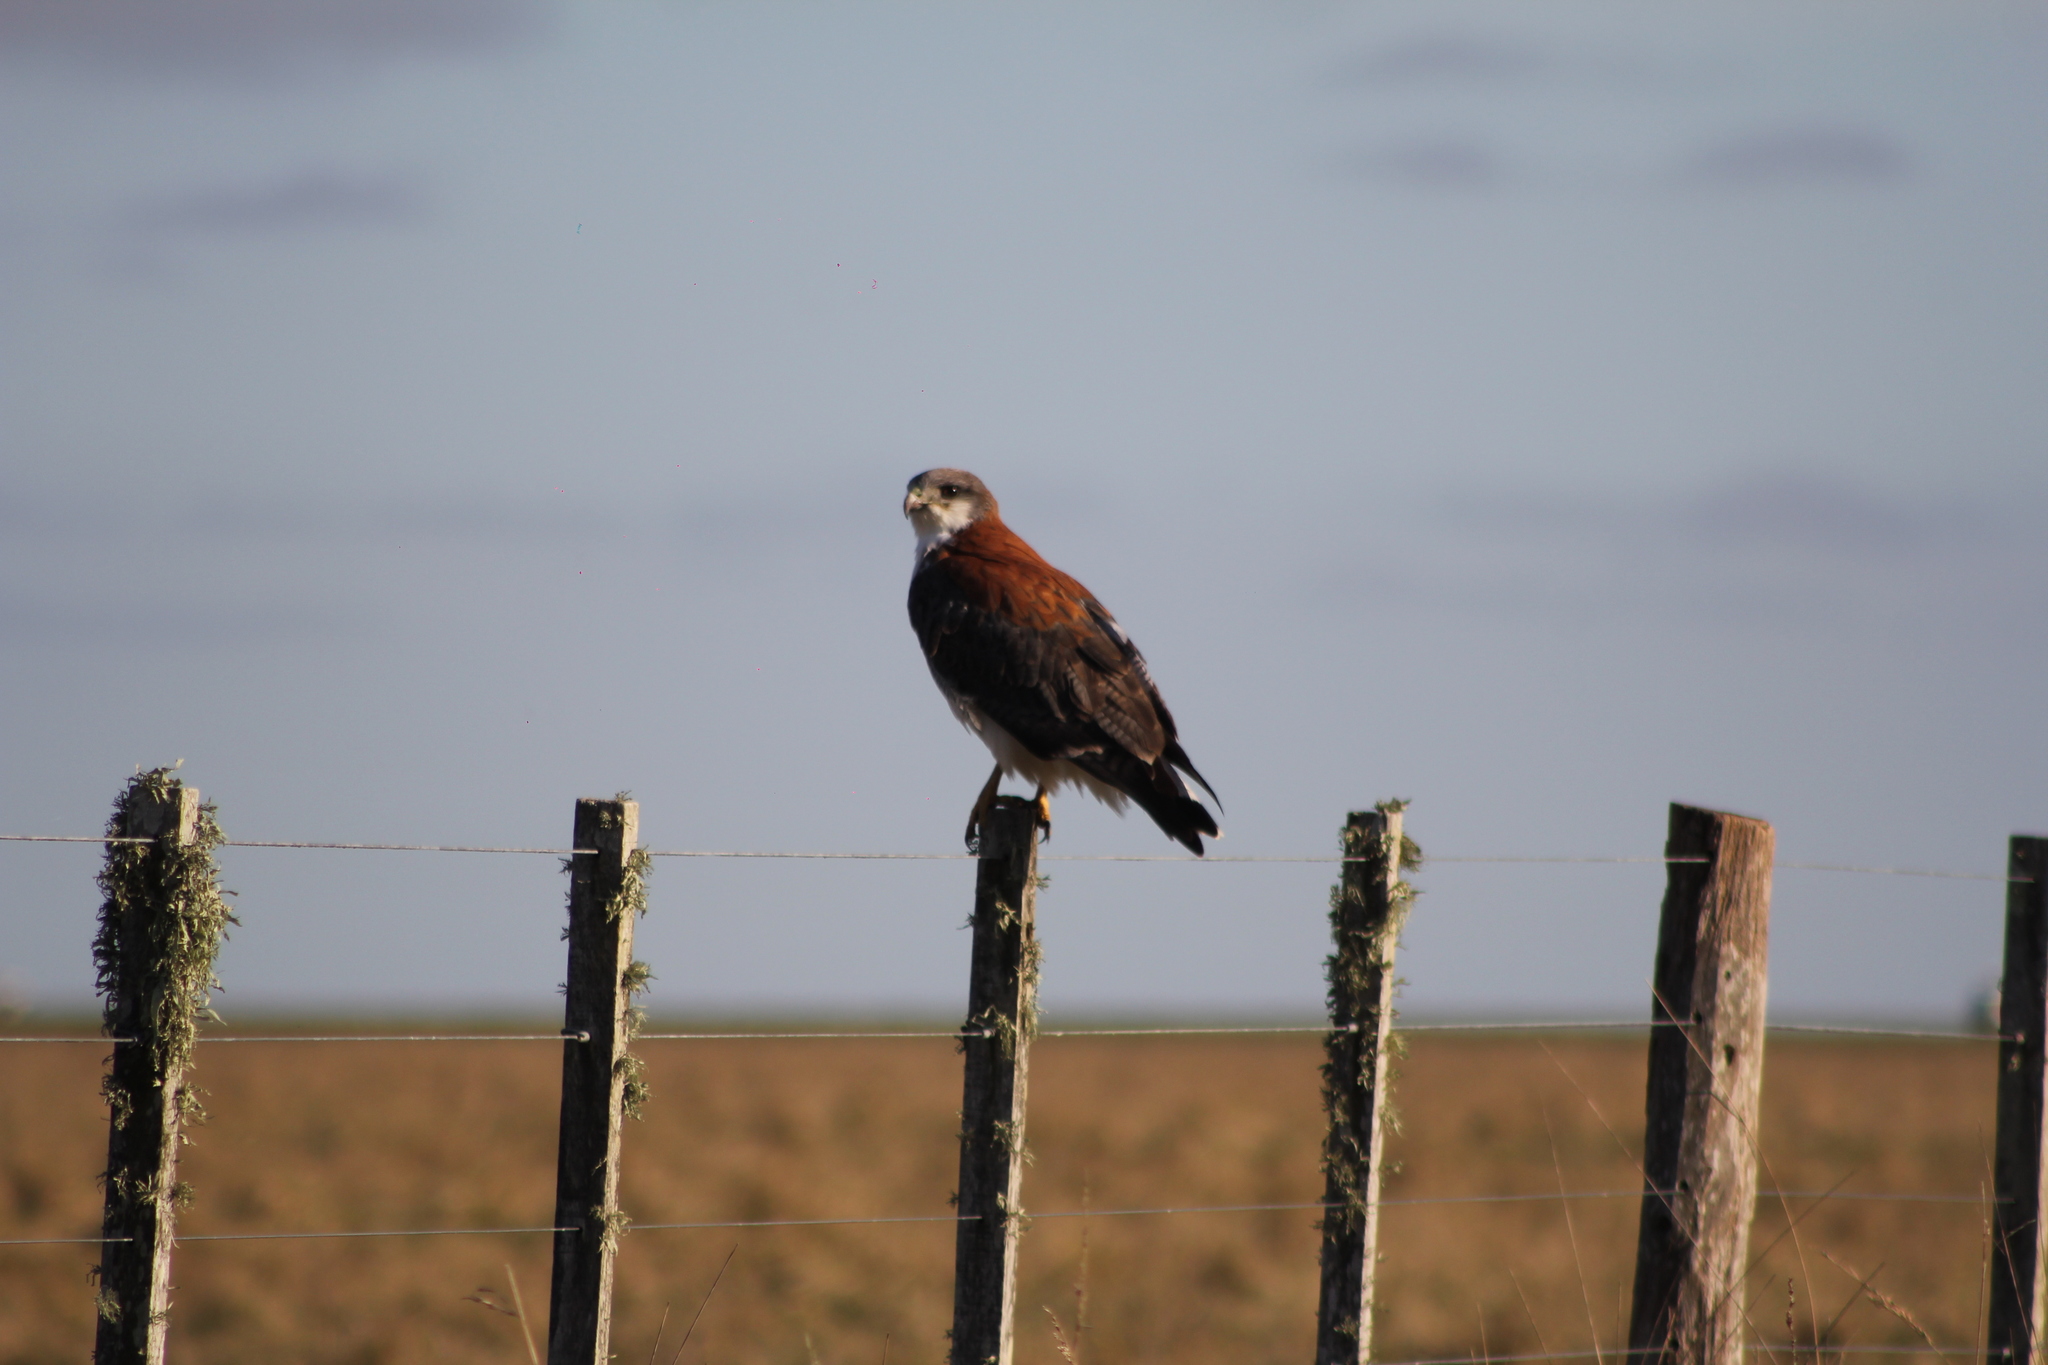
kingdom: Animalia
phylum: Chordata
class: Aves
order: Accipitriformes
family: Accipitridae
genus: Buteo
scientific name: Buteo polyosoma
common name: Variable hawk
